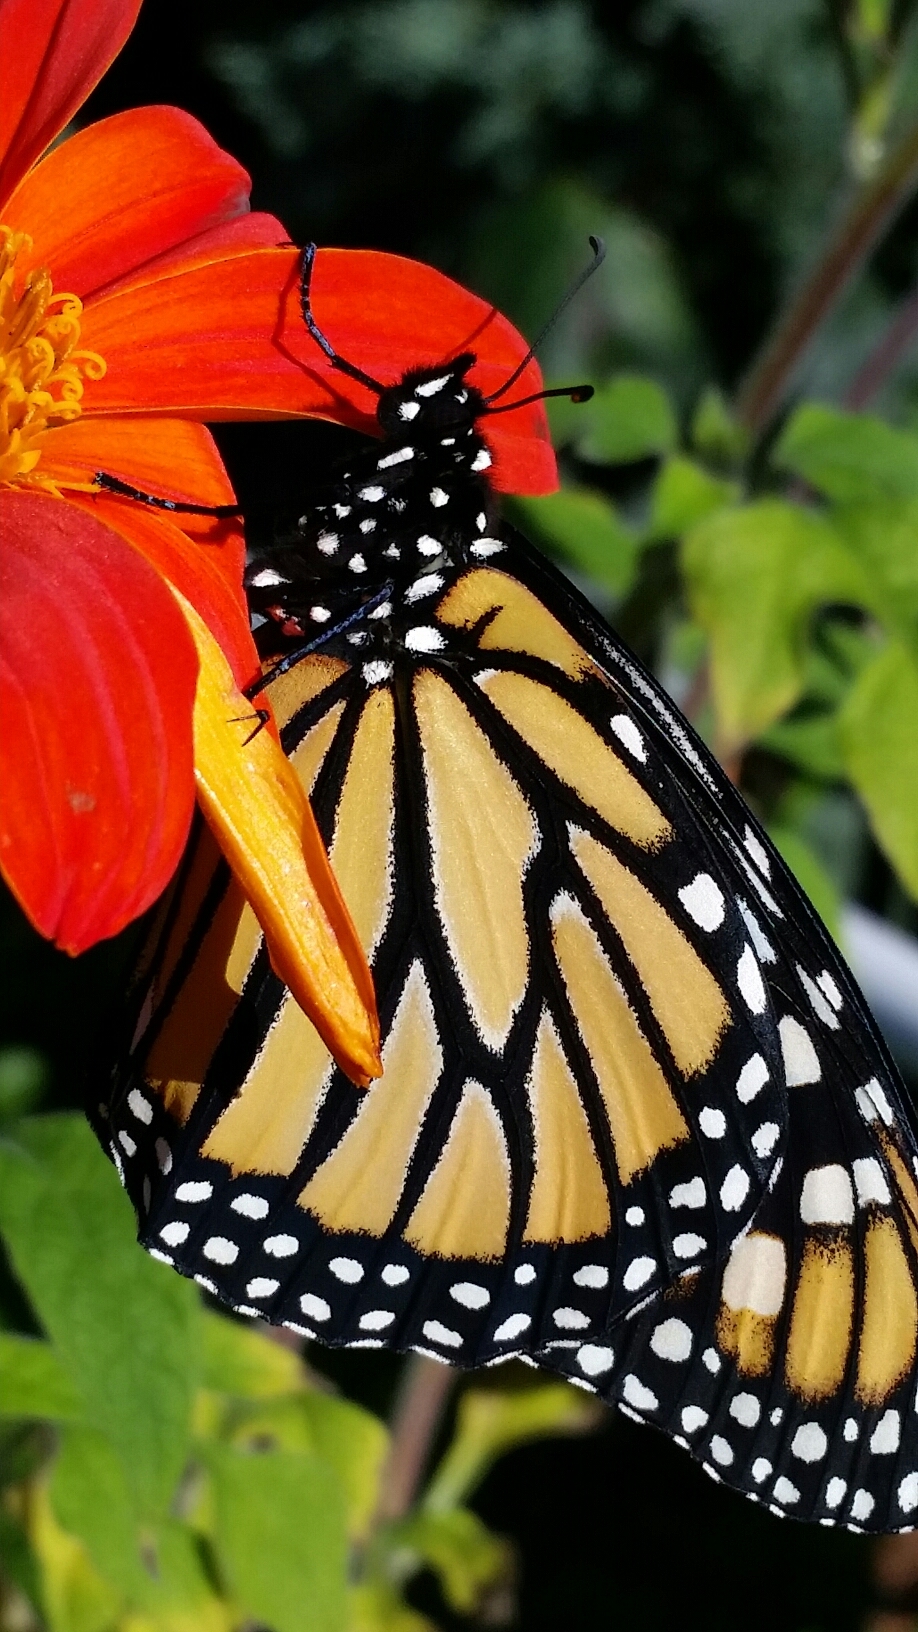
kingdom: Animalia
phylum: Arthropoda
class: Insecta
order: Lepidoptera
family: Nymphalidae
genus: Danaus
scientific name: Danaus plexippus
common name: Monarch
